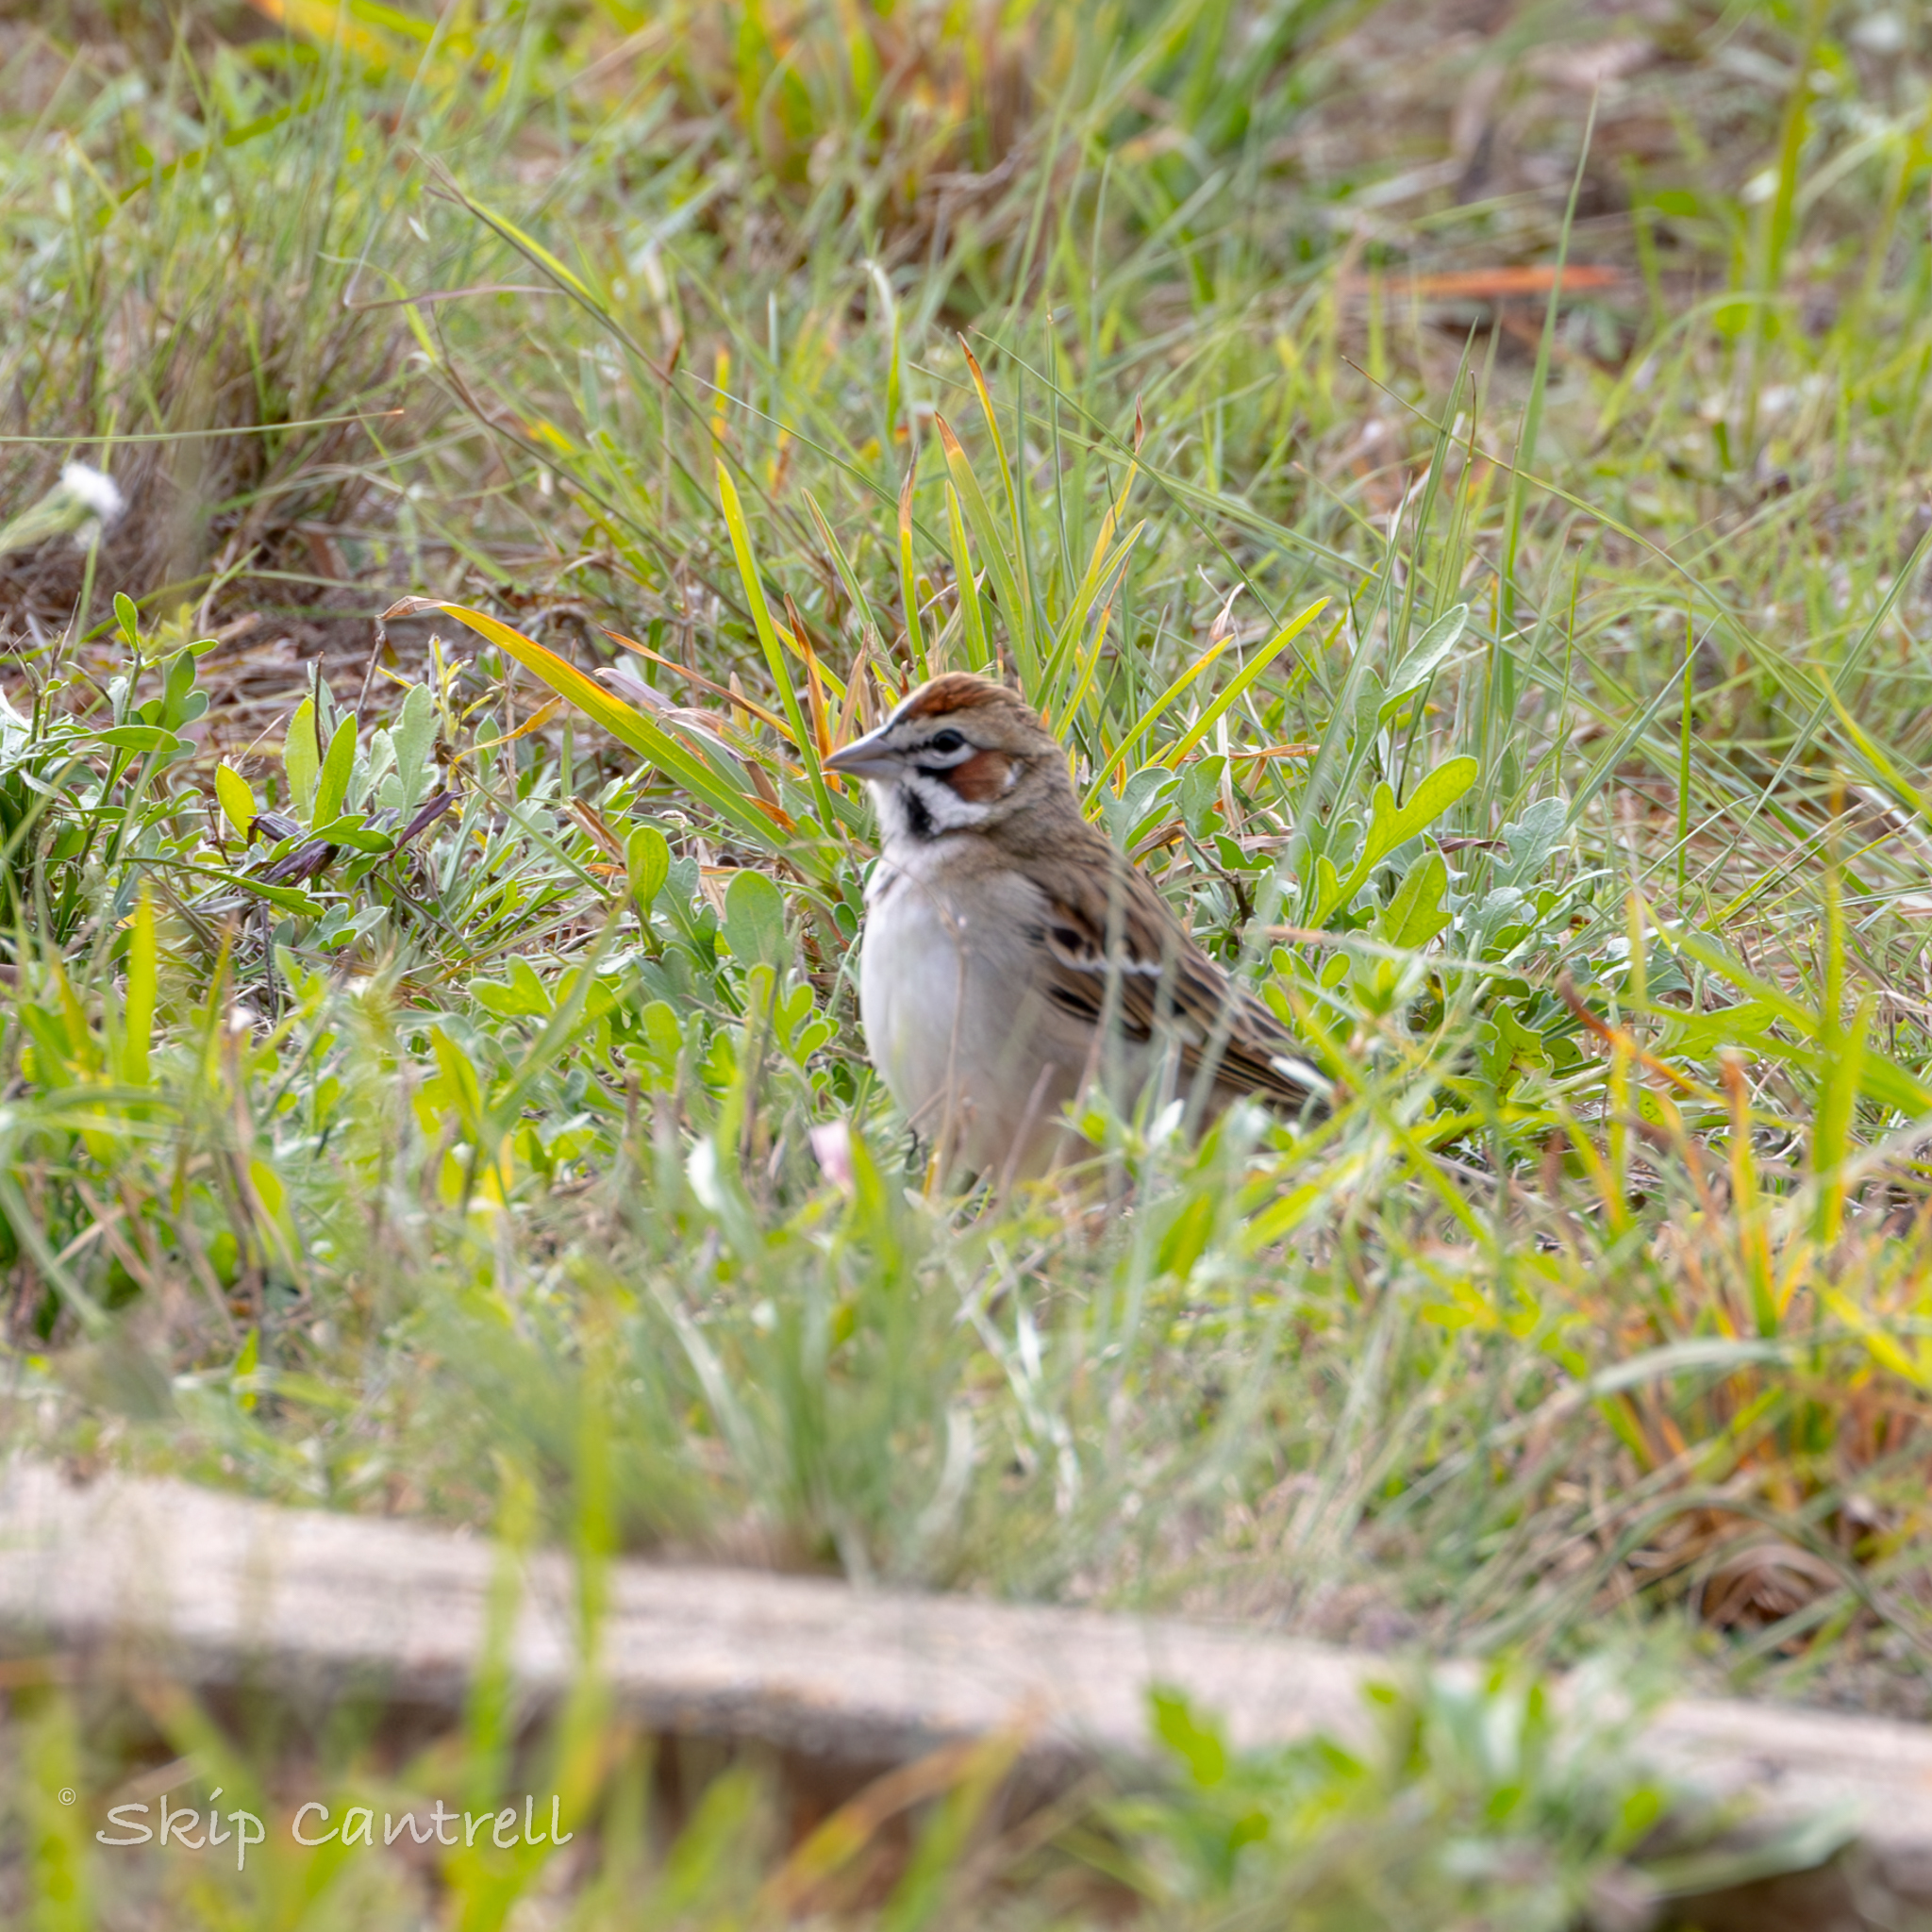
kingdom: Animalia
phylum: Chordata
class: Aves
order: Passeriformes
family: Passerellidae
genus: Chondestes
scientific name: Chondestes grammacus
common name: Lark sparrow
